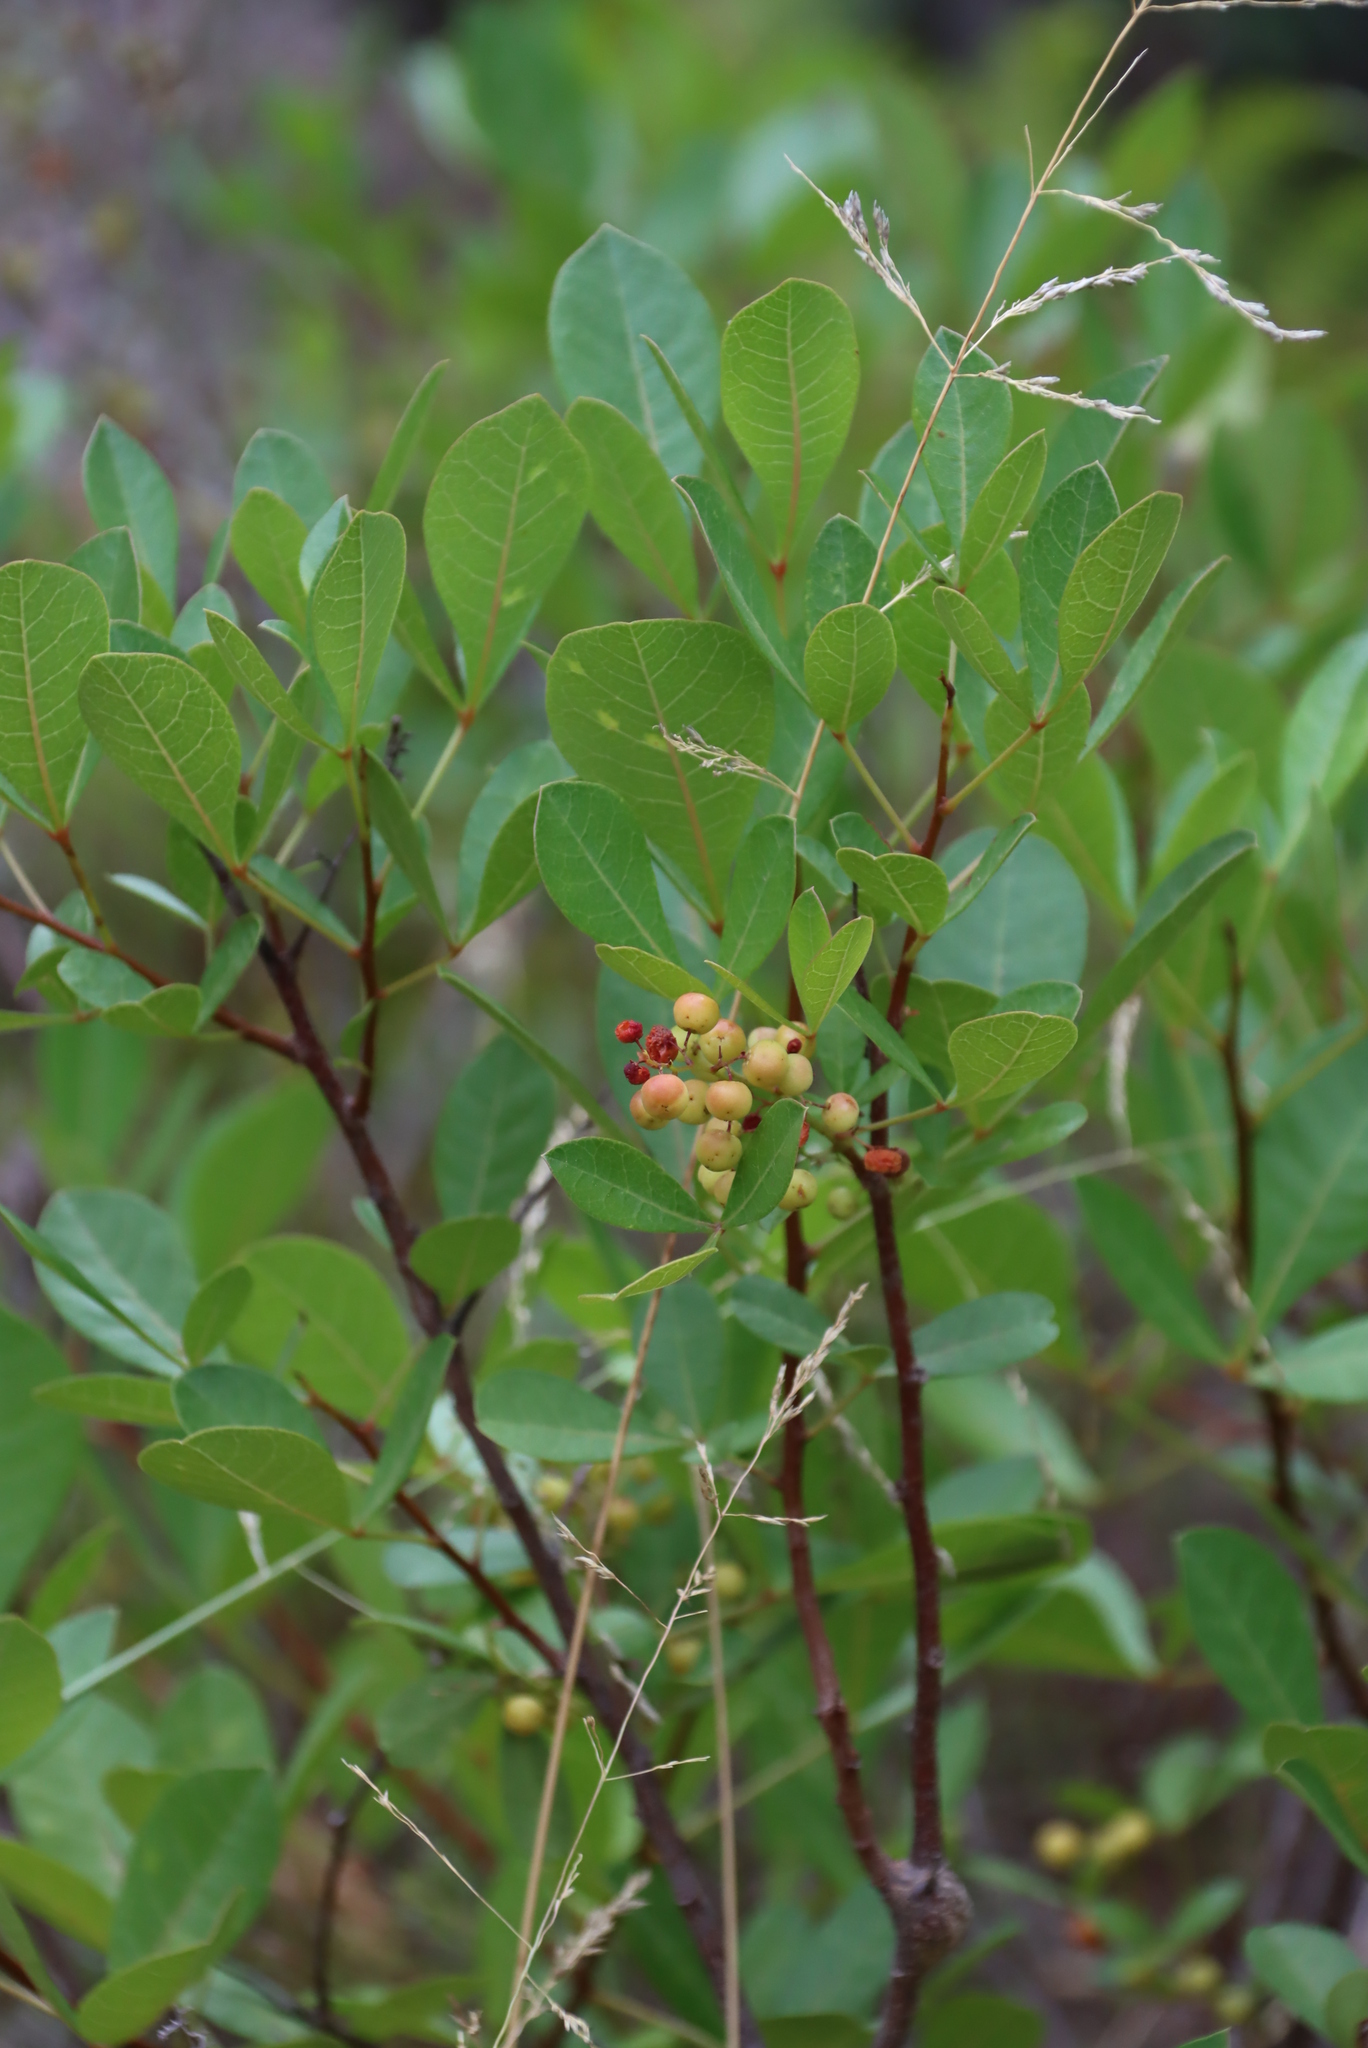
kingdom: Plantae
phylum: Tracheophyta
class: Magnoliopsida
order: Sapindales
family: Anacardiaceae
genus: Searsia
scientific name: Searsia laevigata
